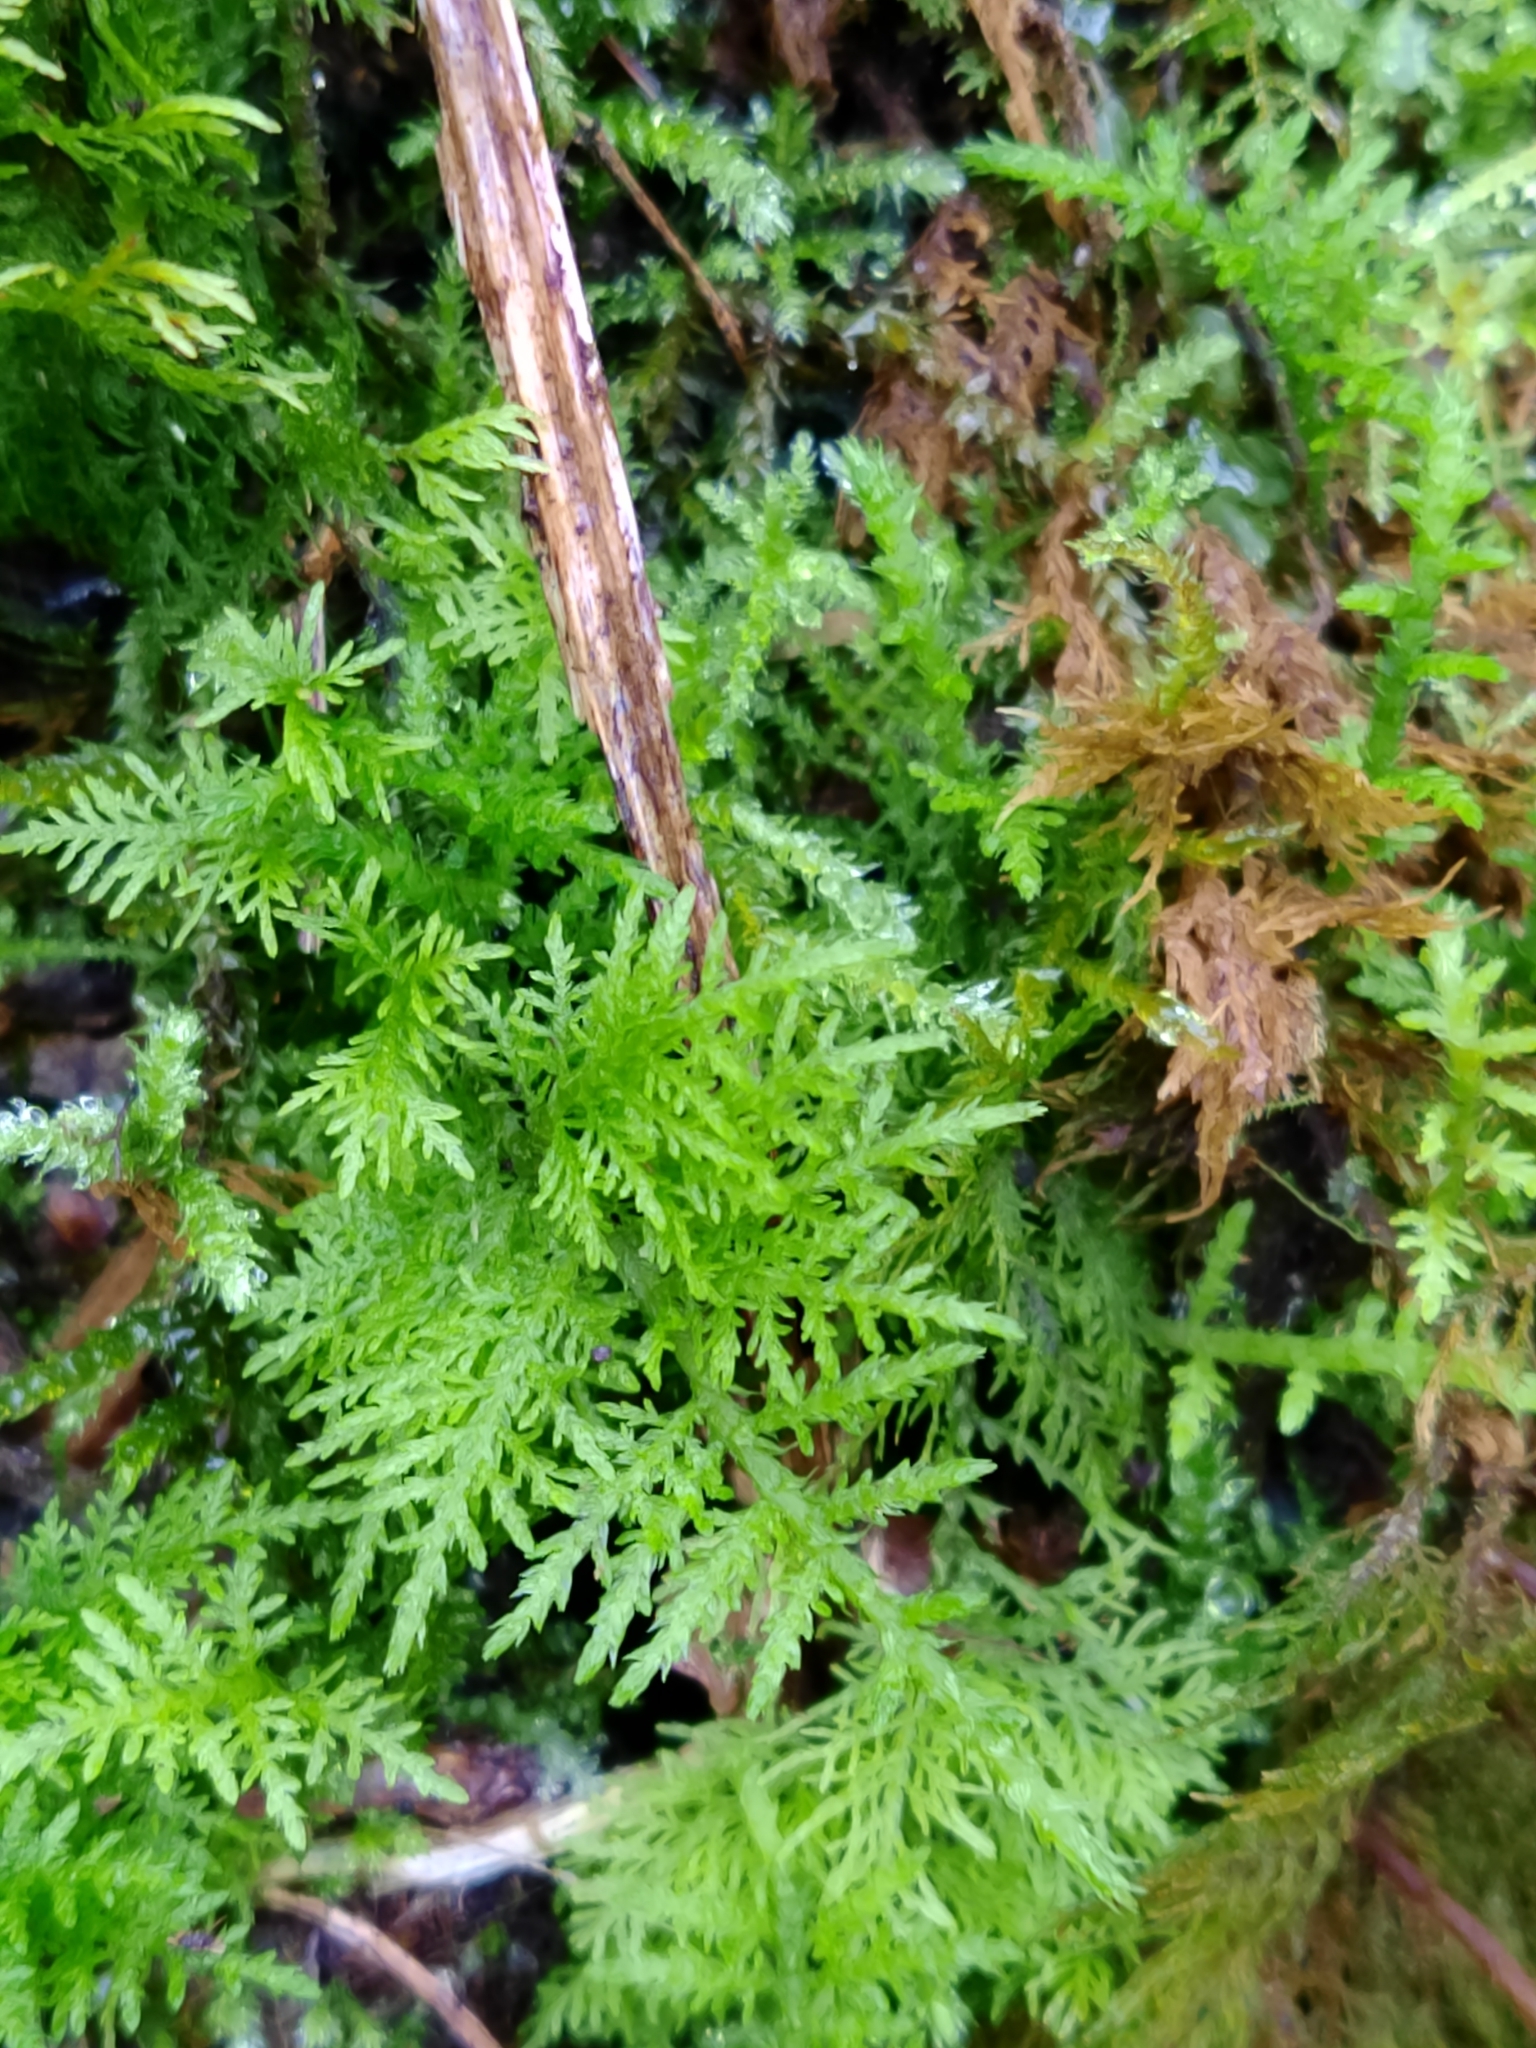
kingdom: Plantae
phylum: Bryophyta
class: Bryopsida
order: Hypnales
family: Thuidiaceae
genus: Thuidium
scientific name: Thuidium tamariscinum
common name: Common tamarisk-moss
